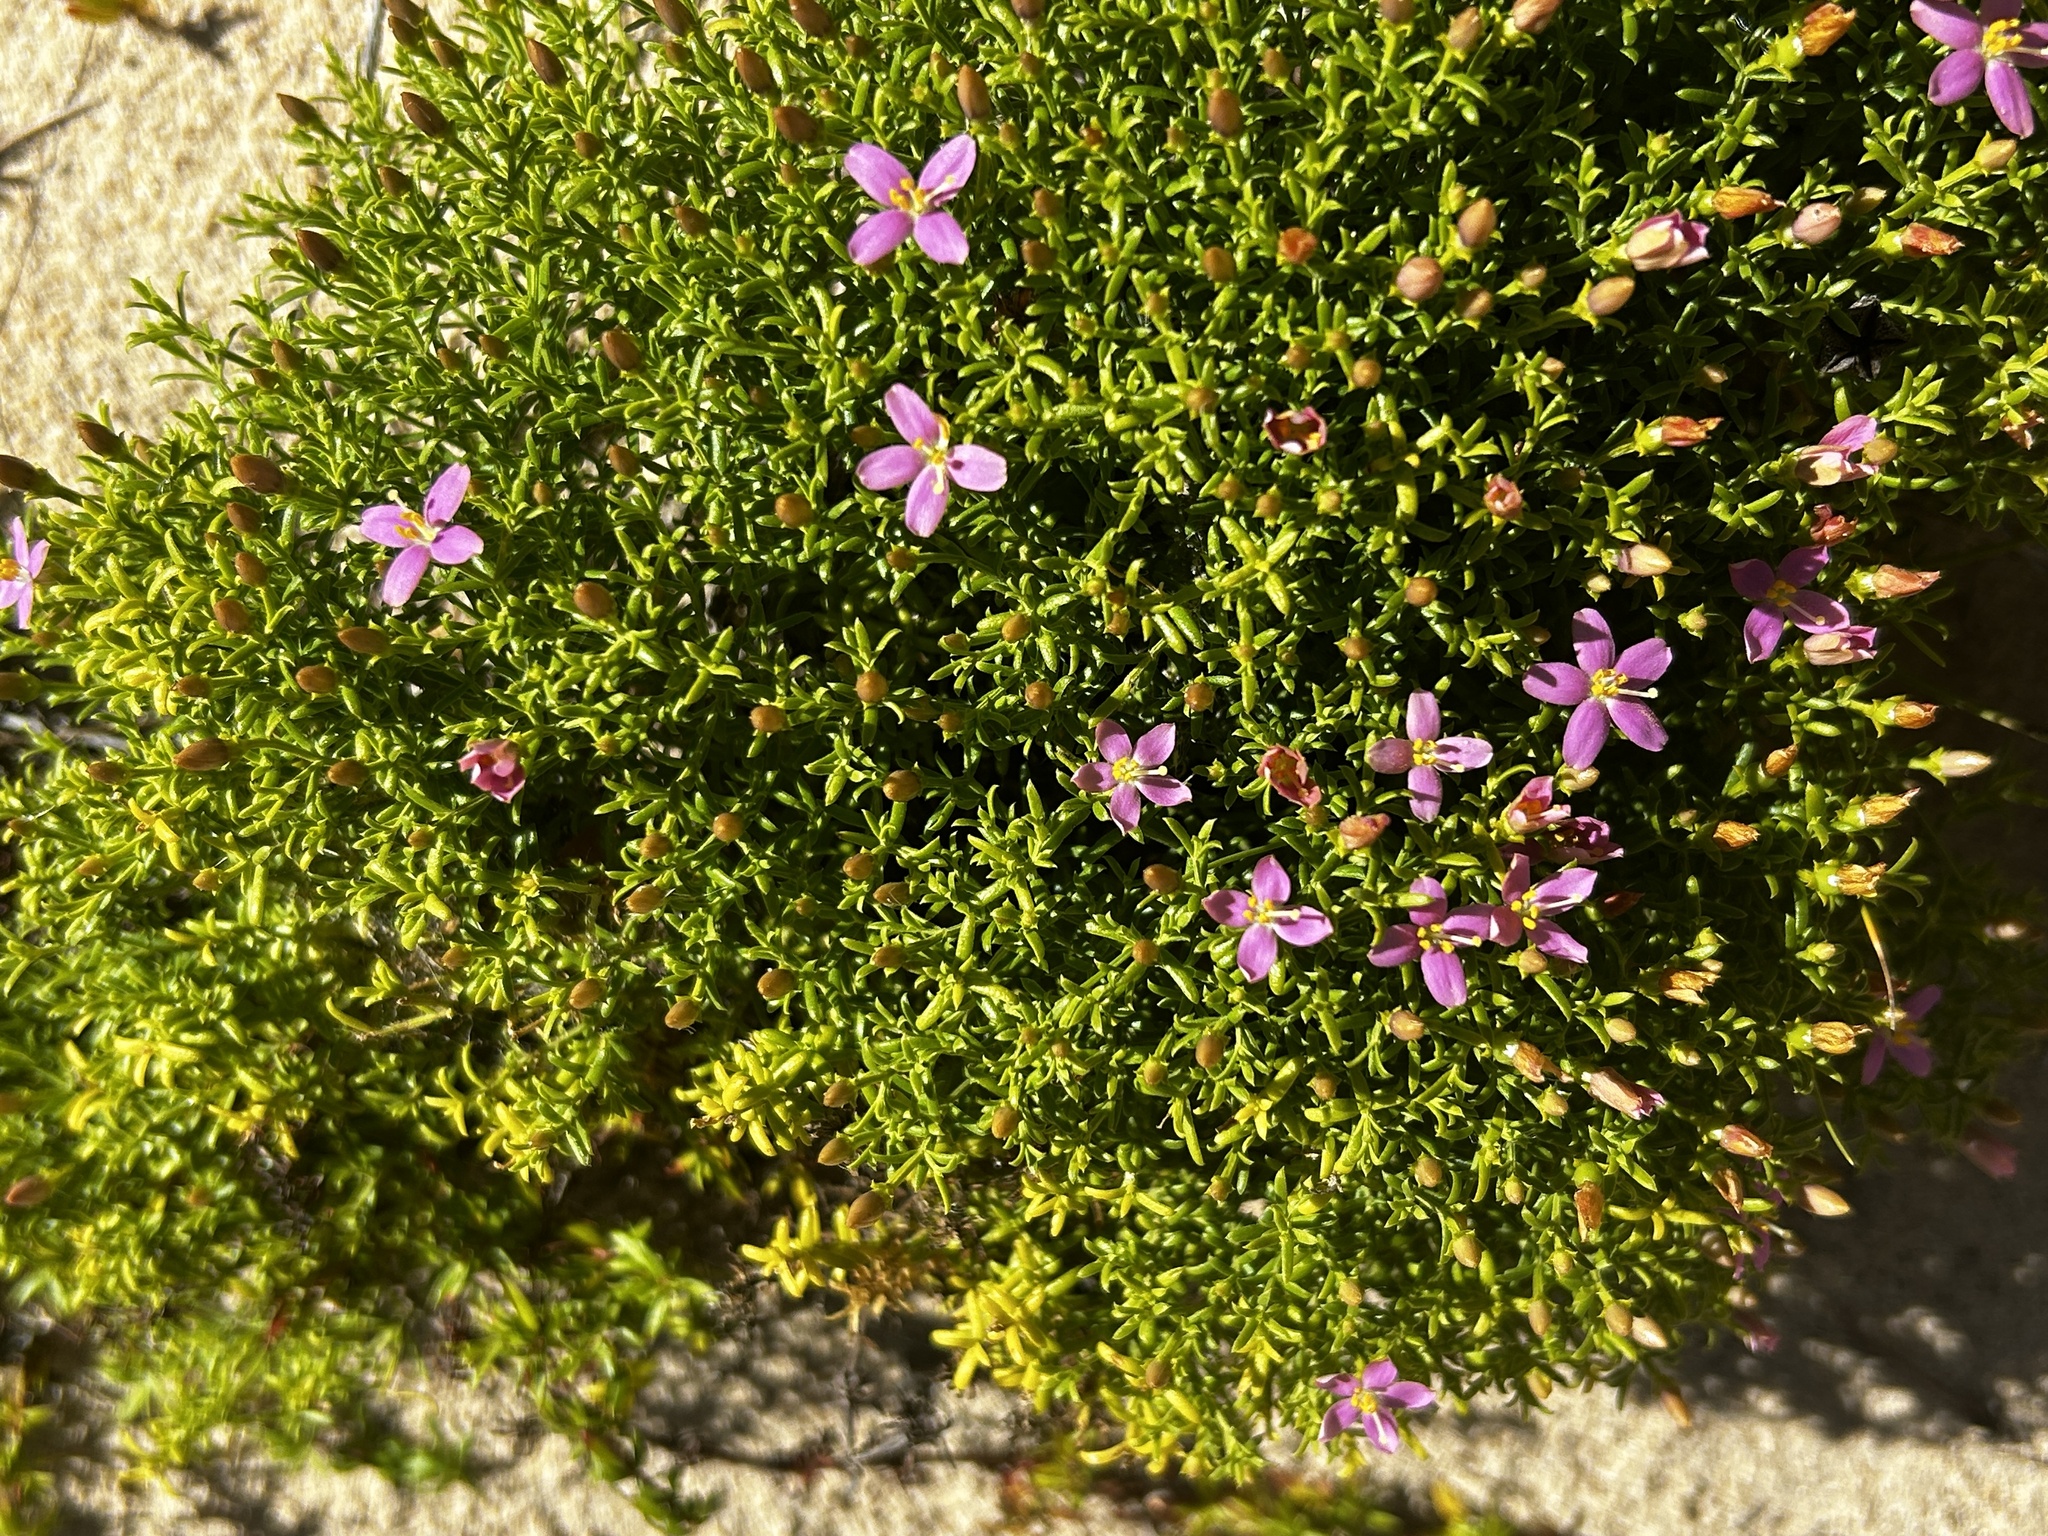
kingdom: Plantae
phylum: Tracheophyta
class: Magnoliopsida
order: Gentianales
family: Gentianaceae
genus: Chironia
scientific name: Chironia baccifera
